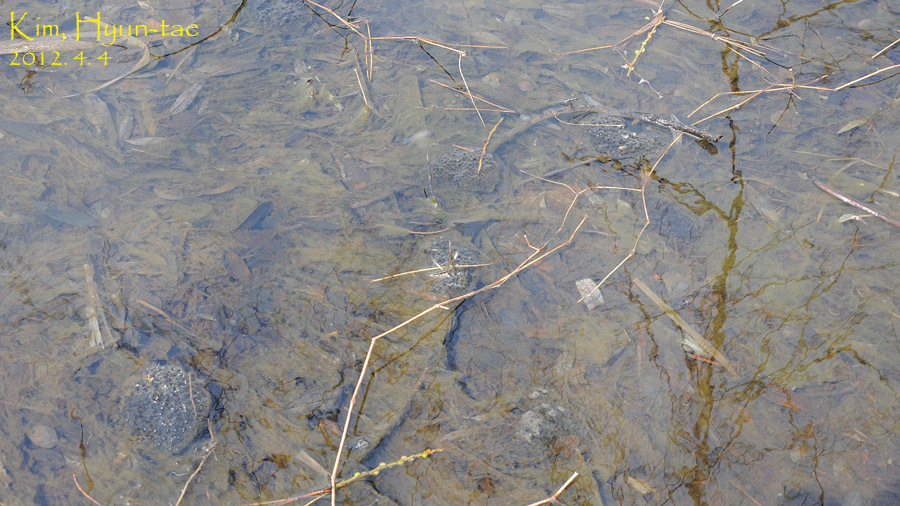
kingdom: Animalia
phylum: Chordata
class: Amphibia
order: Anura
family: Ranidae
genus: Rana
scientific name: Rana coreana
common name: Korean brown frog
